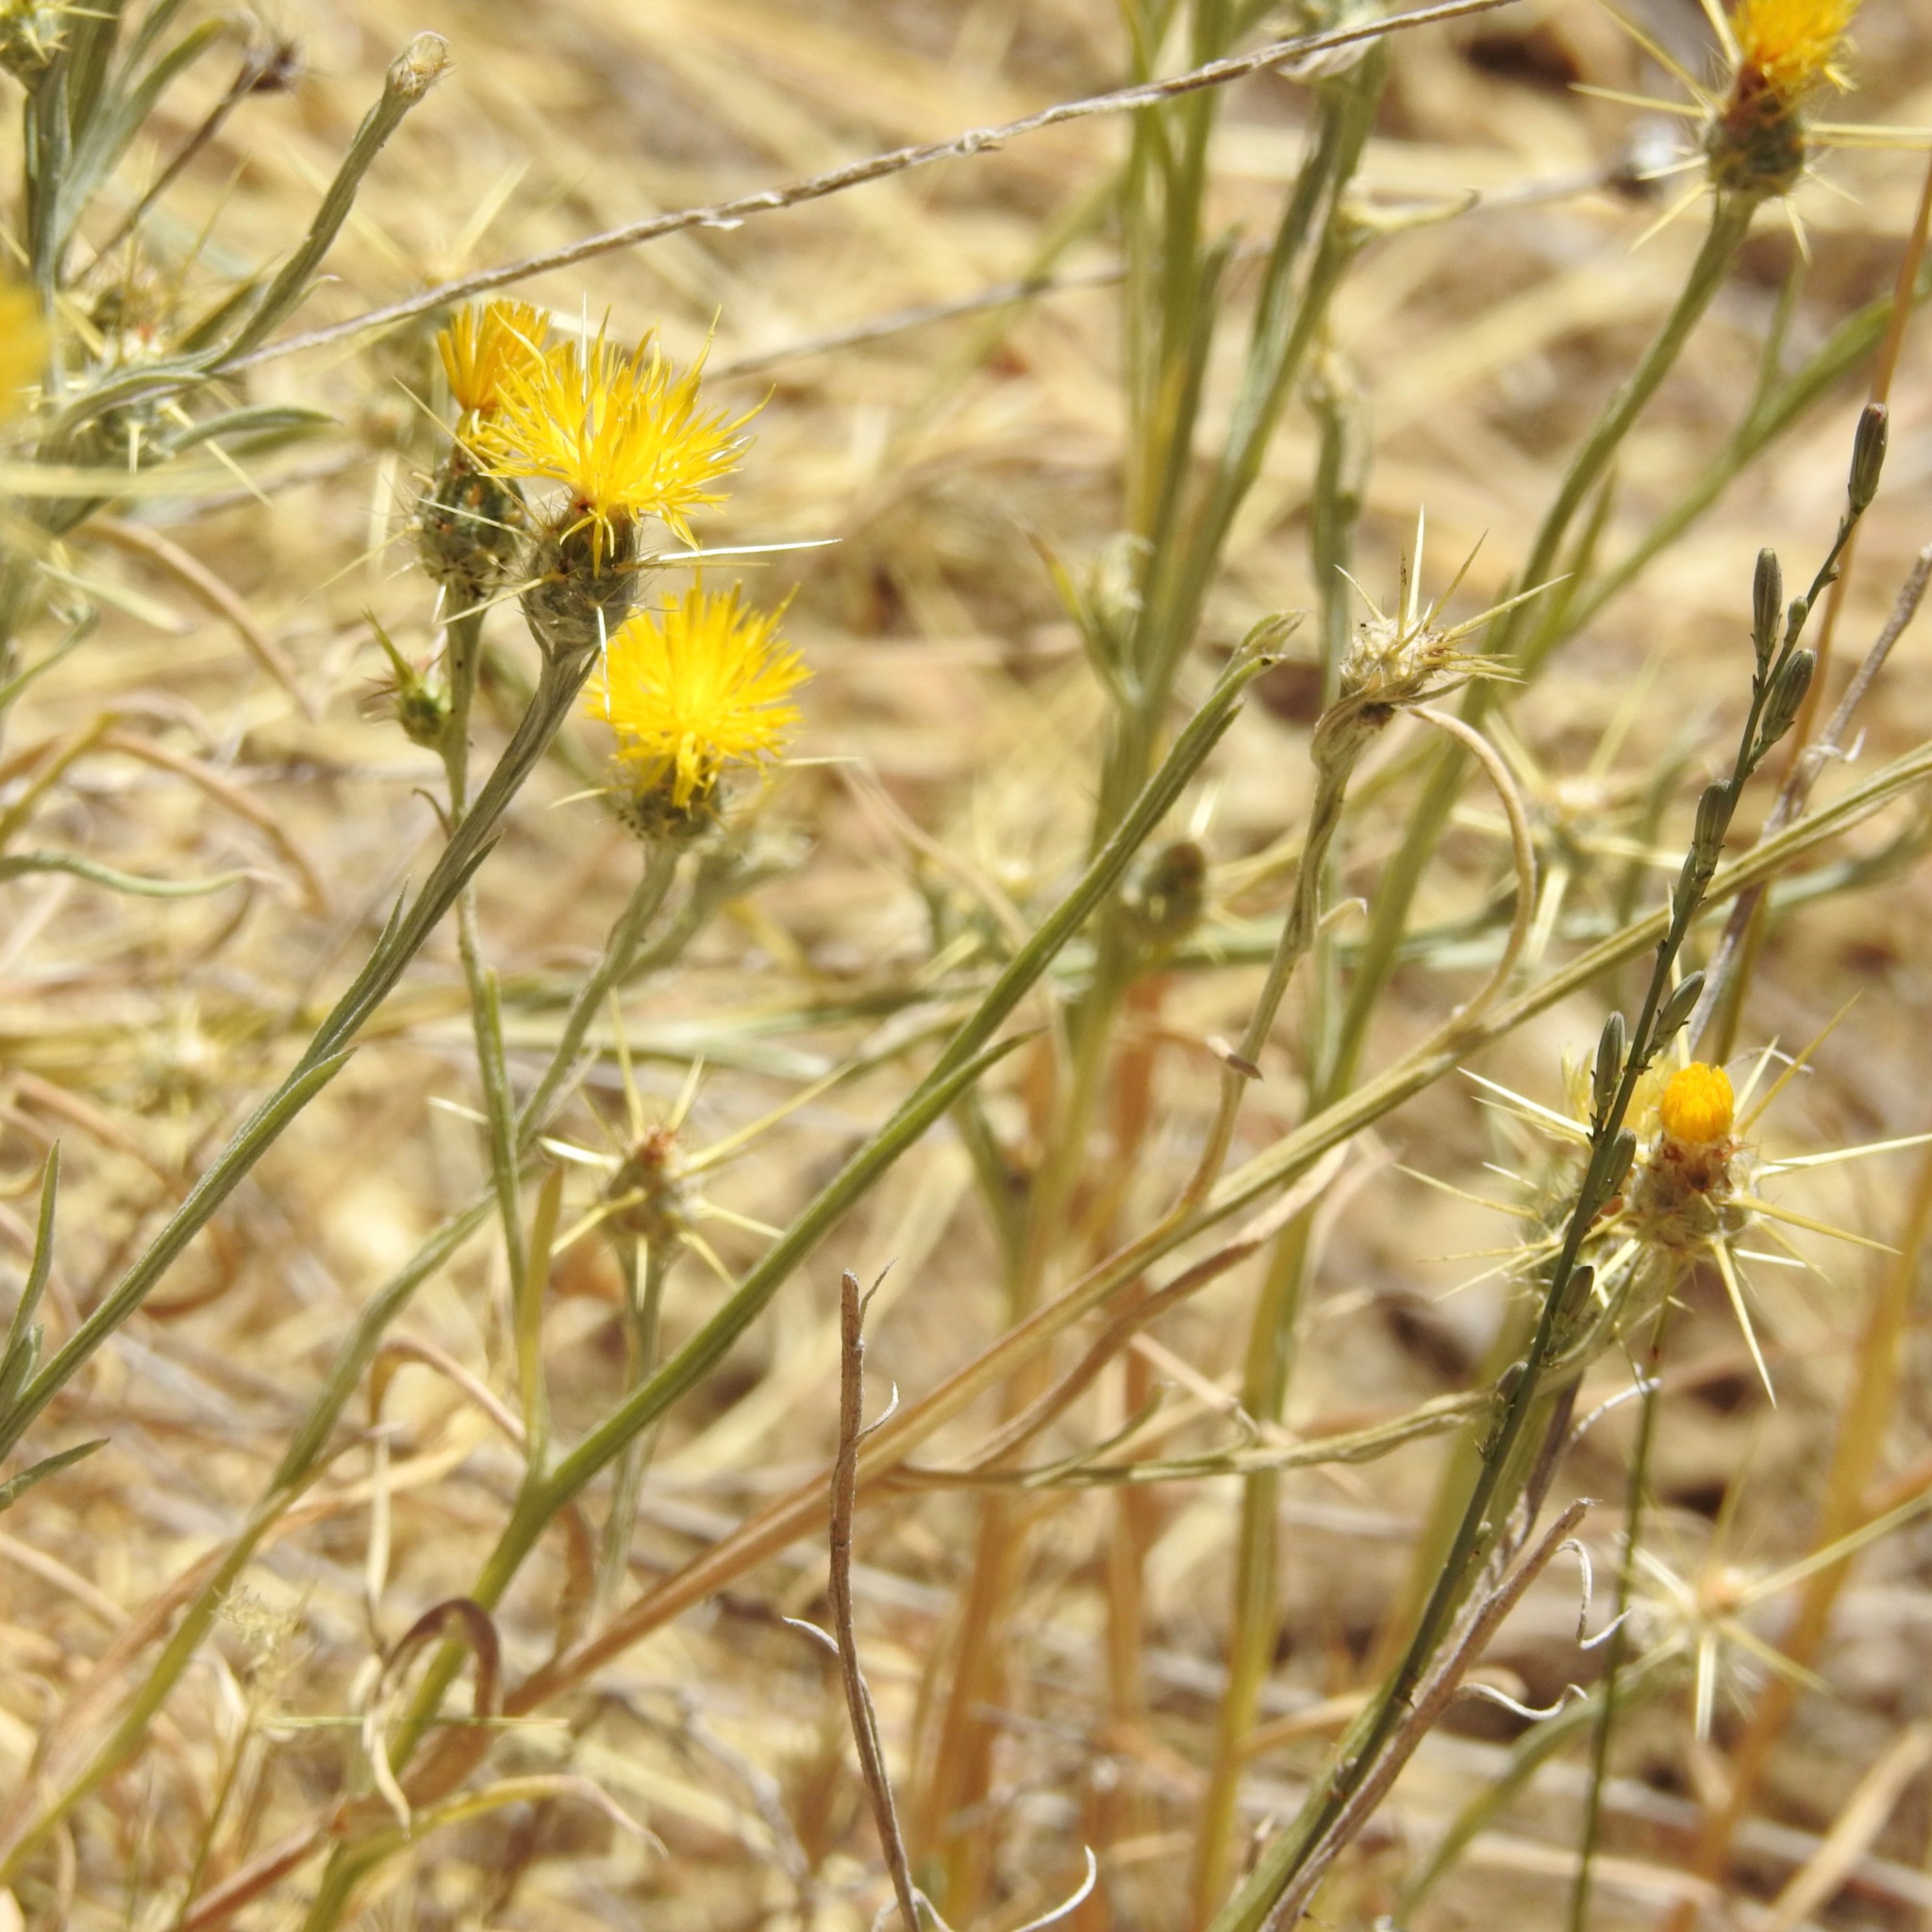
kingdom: Plantae
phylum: Tracheophyta
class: Magnoliopsida
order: Asterales
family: Asteraceae
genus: Centaurea
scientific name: Centaurea solstitialis
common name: Yellow star-thistle
